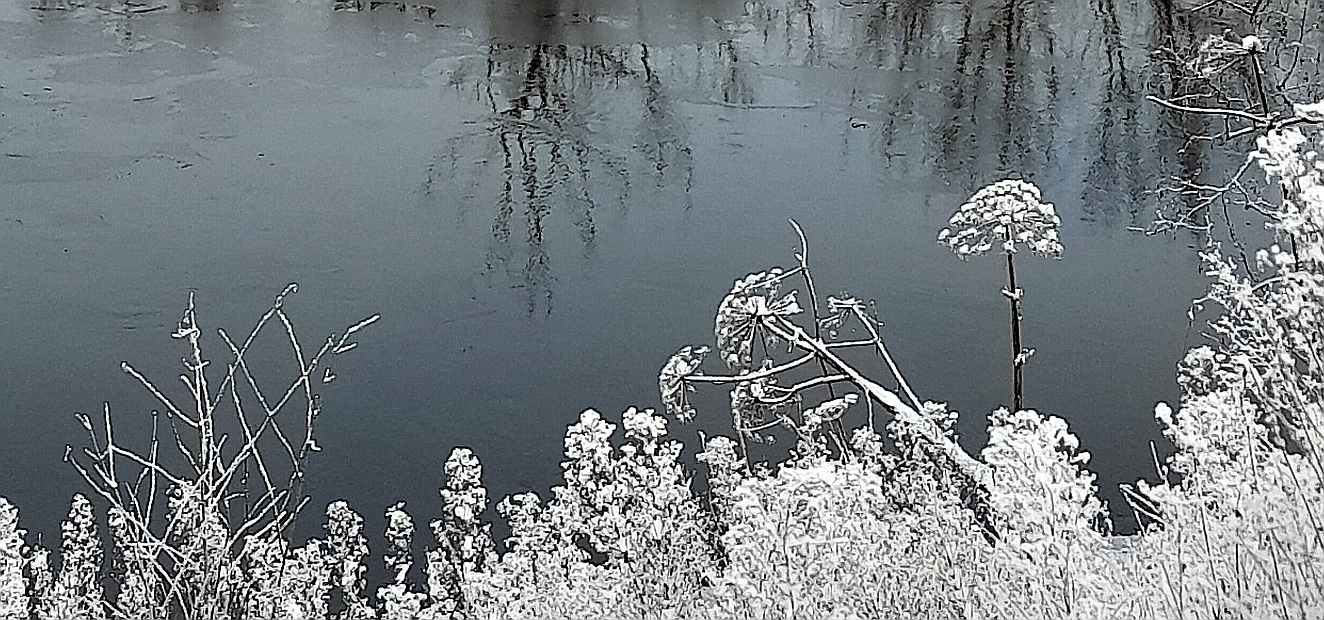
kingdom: Plantae
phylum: Tracheophyta
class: Magnoliopsida
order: Apiales
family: Apiaceae
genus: Heracleum
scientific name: Heracleum sosnowskyi
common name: Sosnowsky's hogweed
